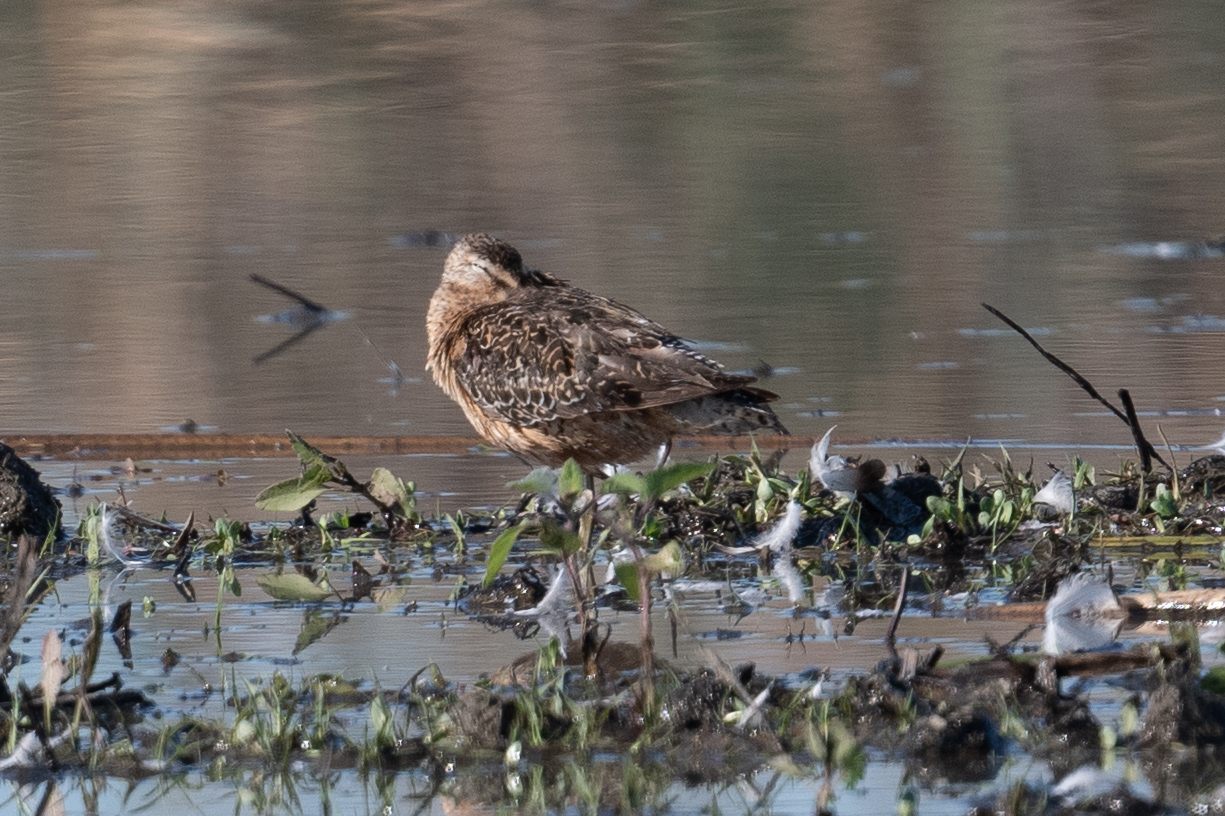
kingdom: Animalia
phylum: Chordata
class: Aves
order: Charadriiformes
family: Scolopacidae
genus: Limnodromus
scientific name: Limnodromus scolopaceus
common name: Long-billed dowitcher
